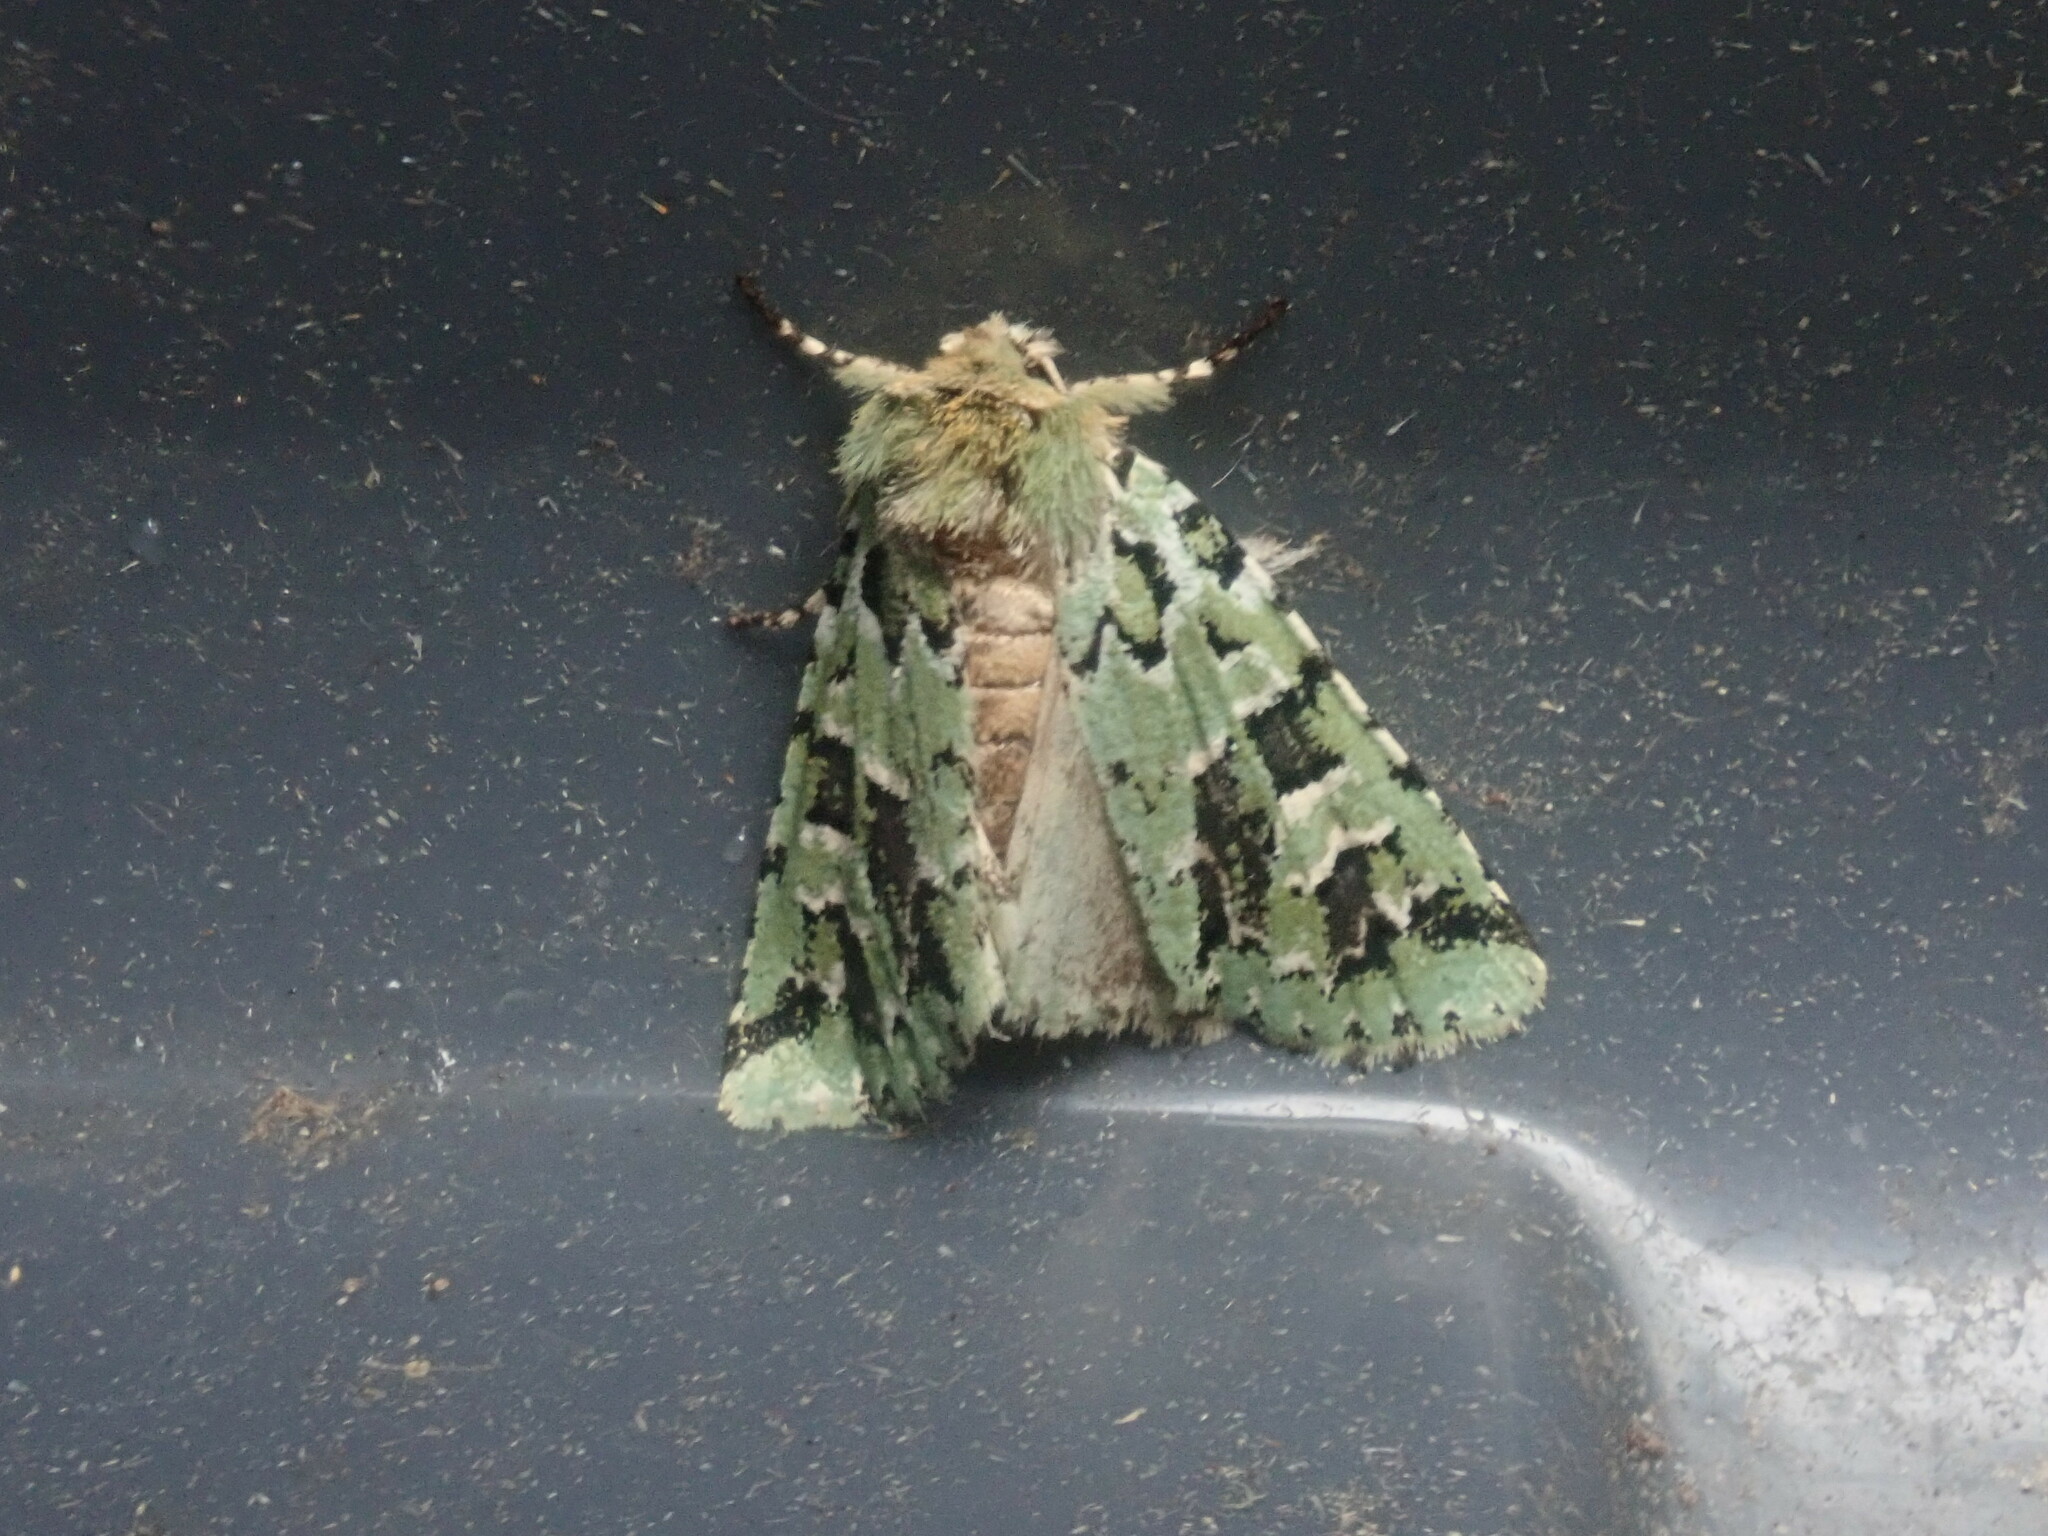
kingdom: Animalia
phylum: Arthropoda
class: Insecta
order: Lepidoptera
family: Noctuidae
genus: Feralia
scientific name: Feralia comstocki
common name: Comstock's sallow
